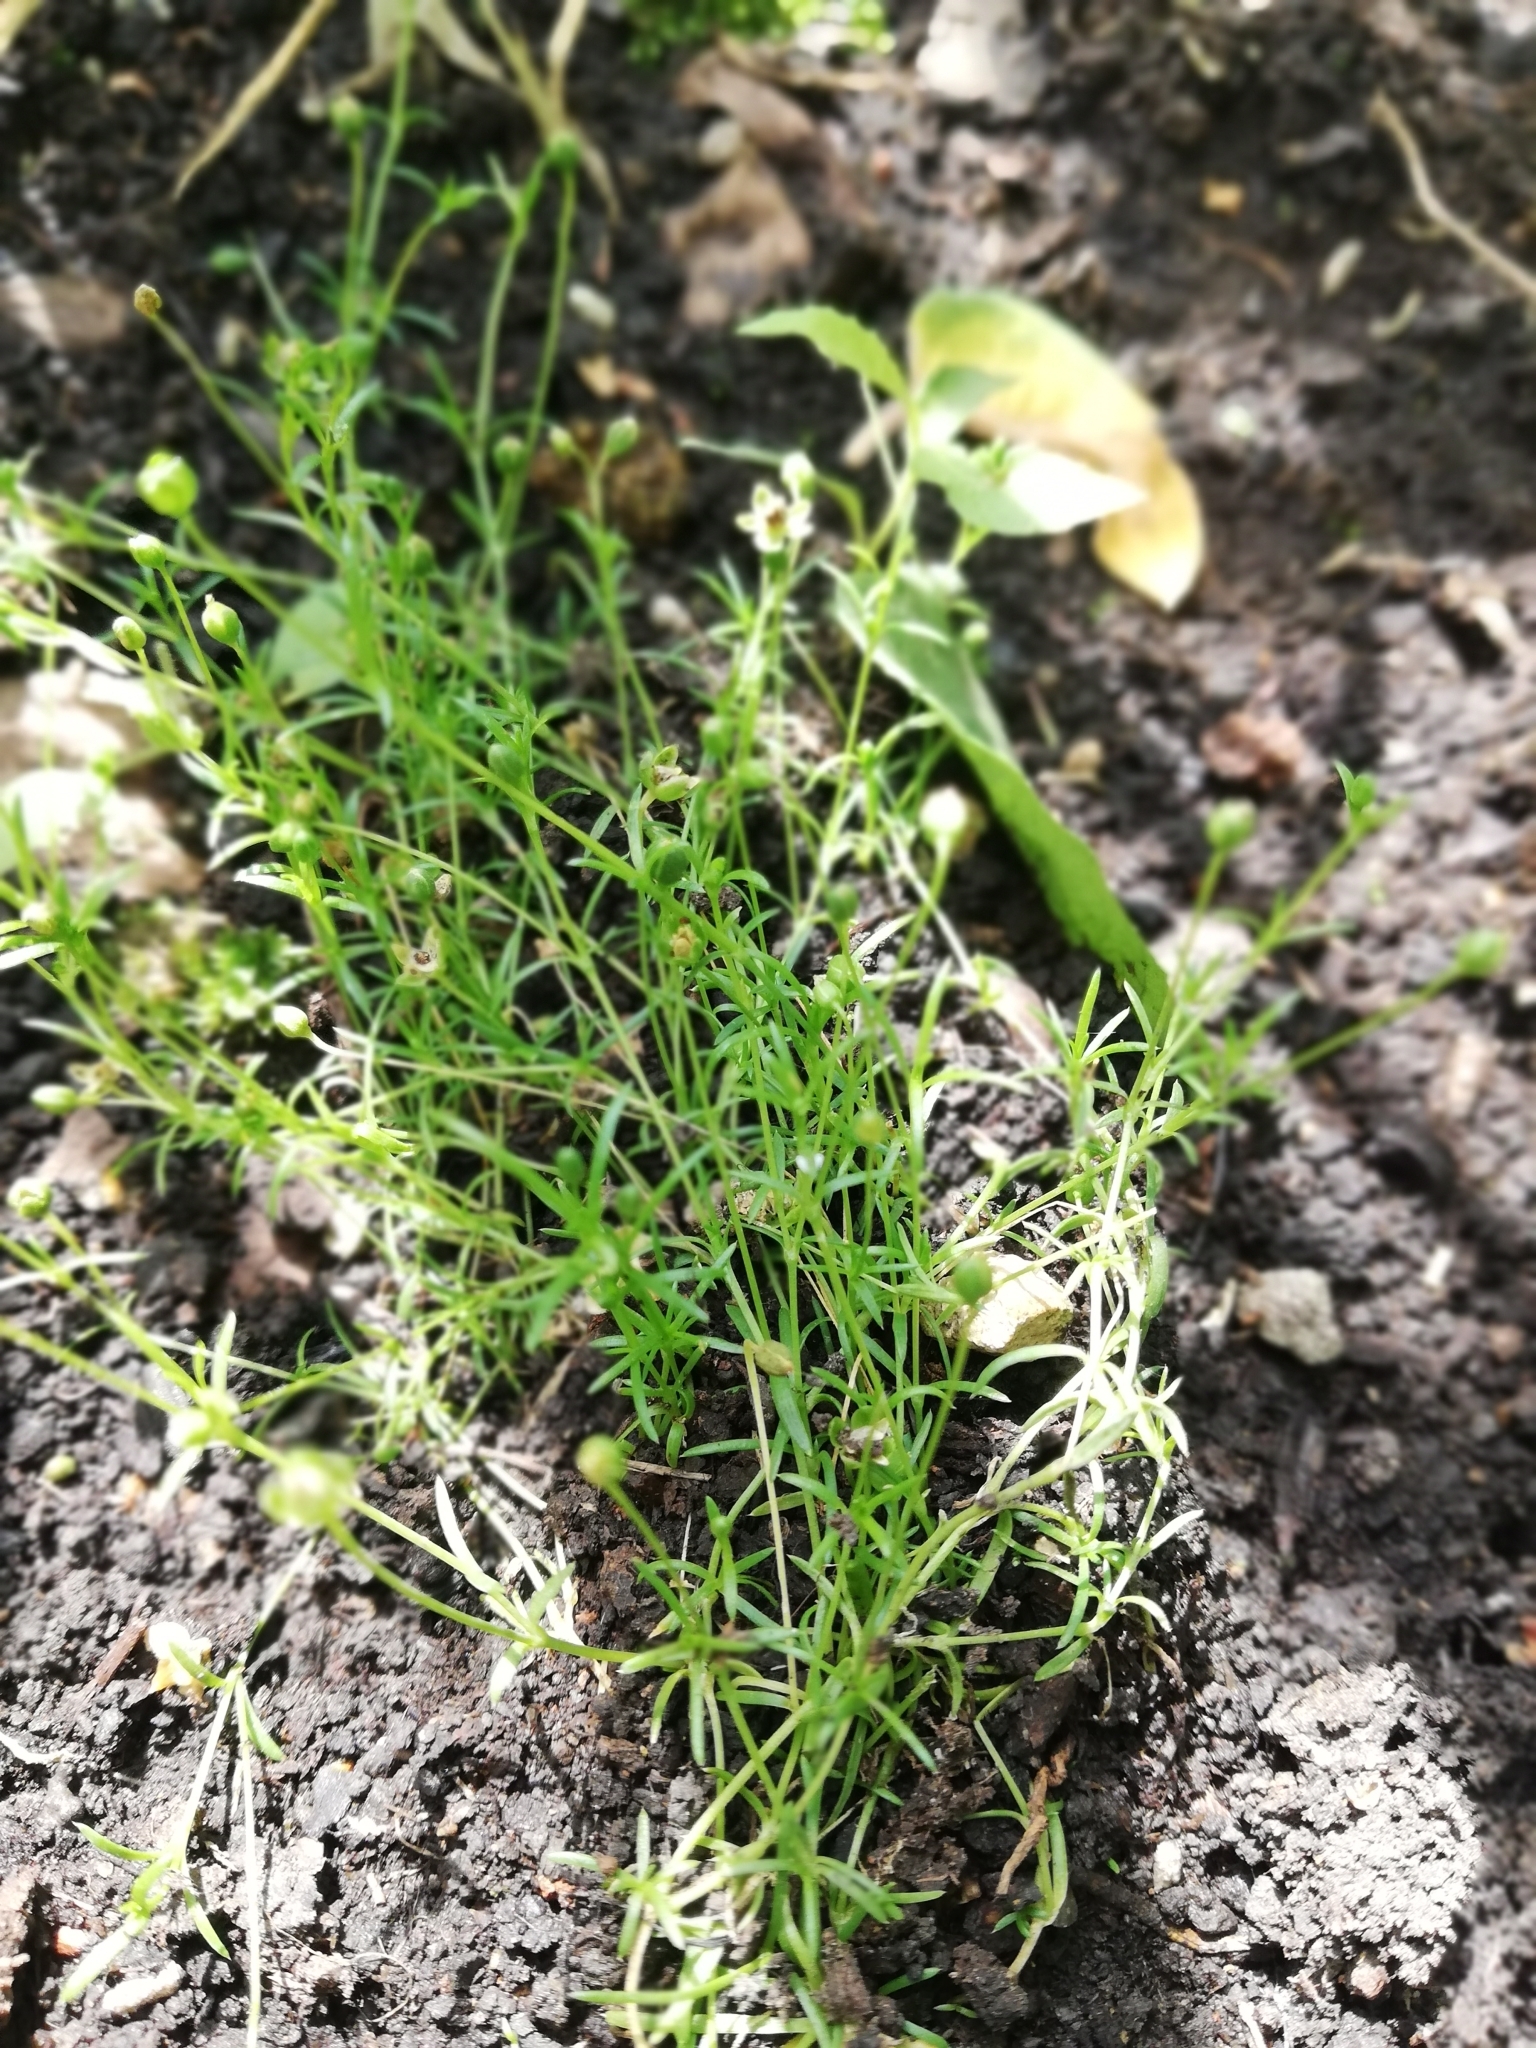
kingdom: Plantae
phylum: Tracheophyta
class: Magnoliopsida
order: Caryophyllales
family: Caryophyllaceae
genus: Sagina
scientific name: Sagina procumbens
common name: Procumbent pearlwort
